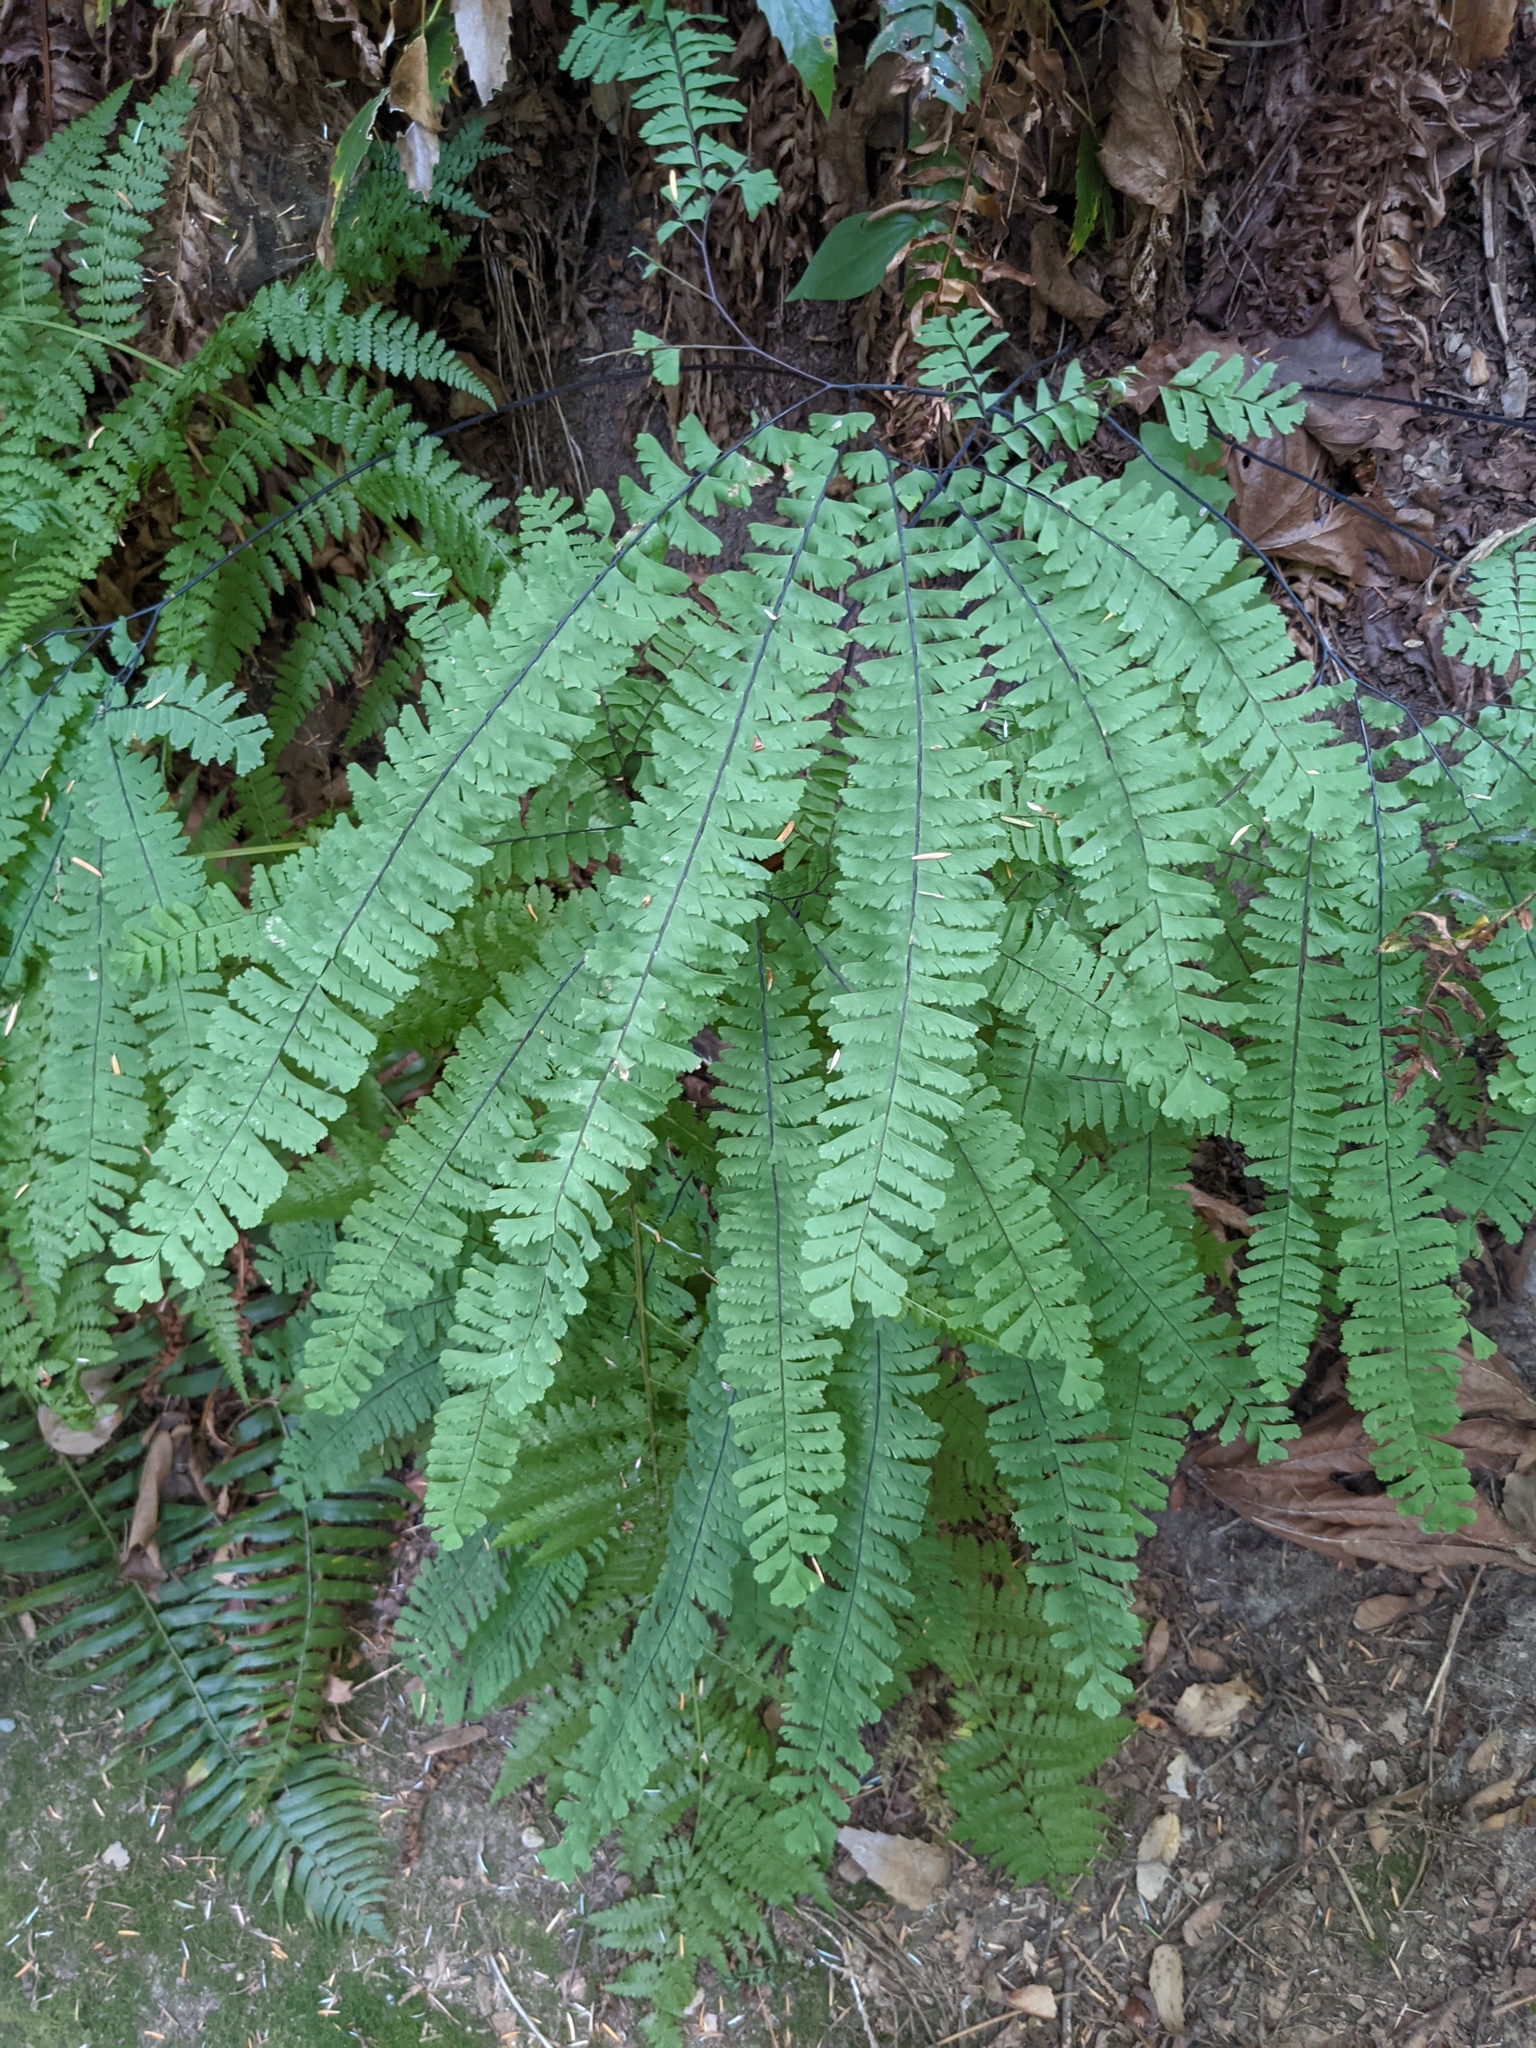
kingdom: Plantae
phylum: Tracheophyta
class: Polypodiopsida
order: Polypodiales
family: Pteridaceae
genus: Adiantum
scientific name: Adiantum aleuticum
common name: Aleutian maidenhair fern
